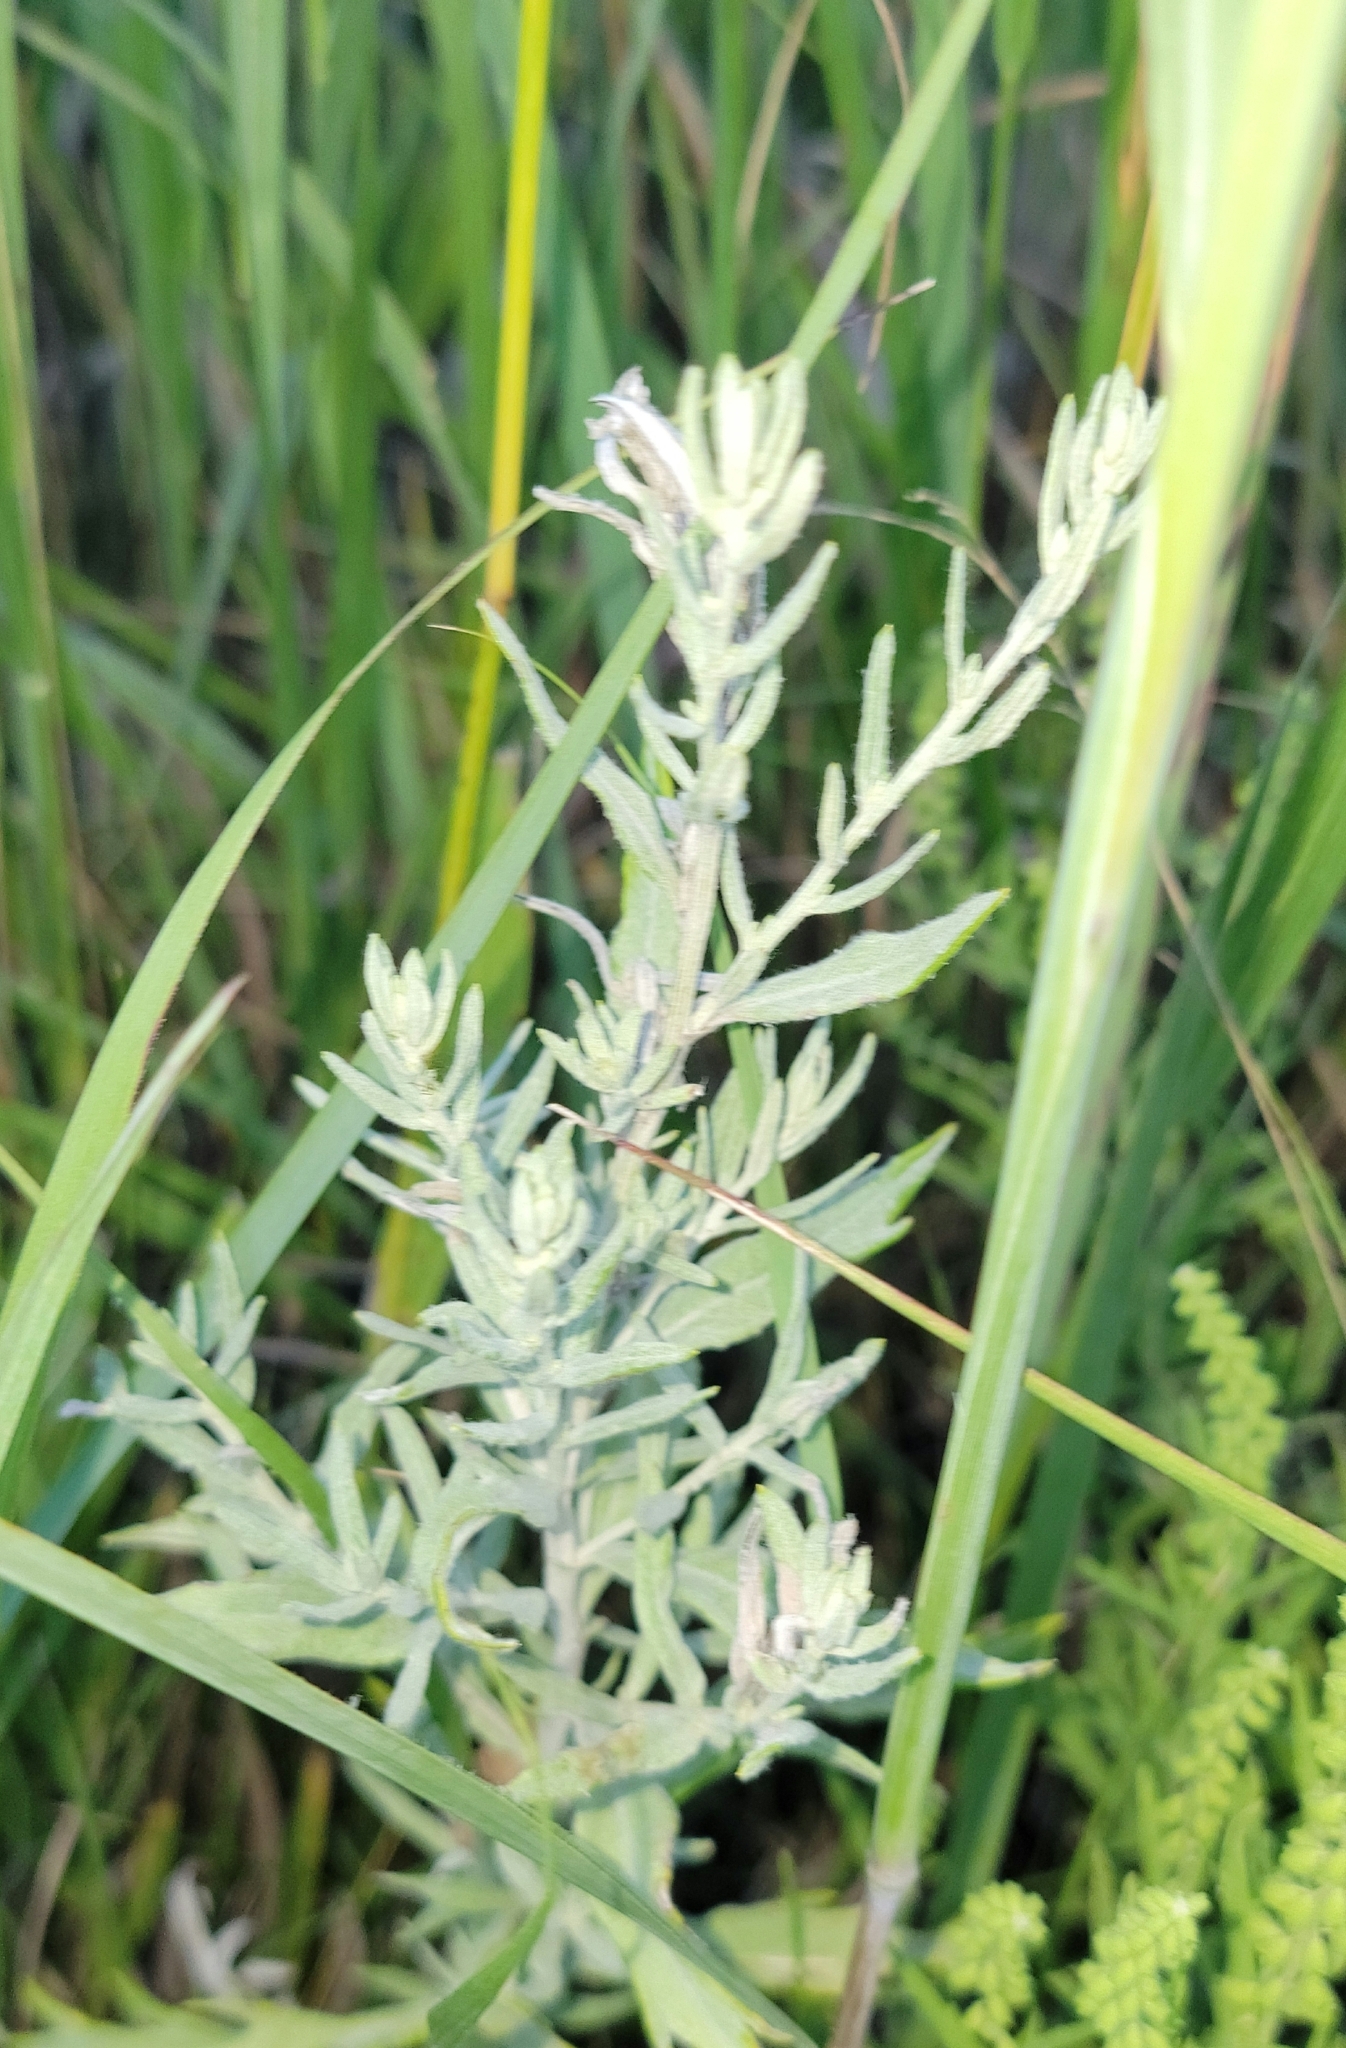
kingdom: Plantae
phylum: Tracheophyta
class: Magnoliopsida
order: Asterales
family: Asteraceae
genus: Artemisia
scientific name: Artemisia ludoviciana
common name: Western mugwort
